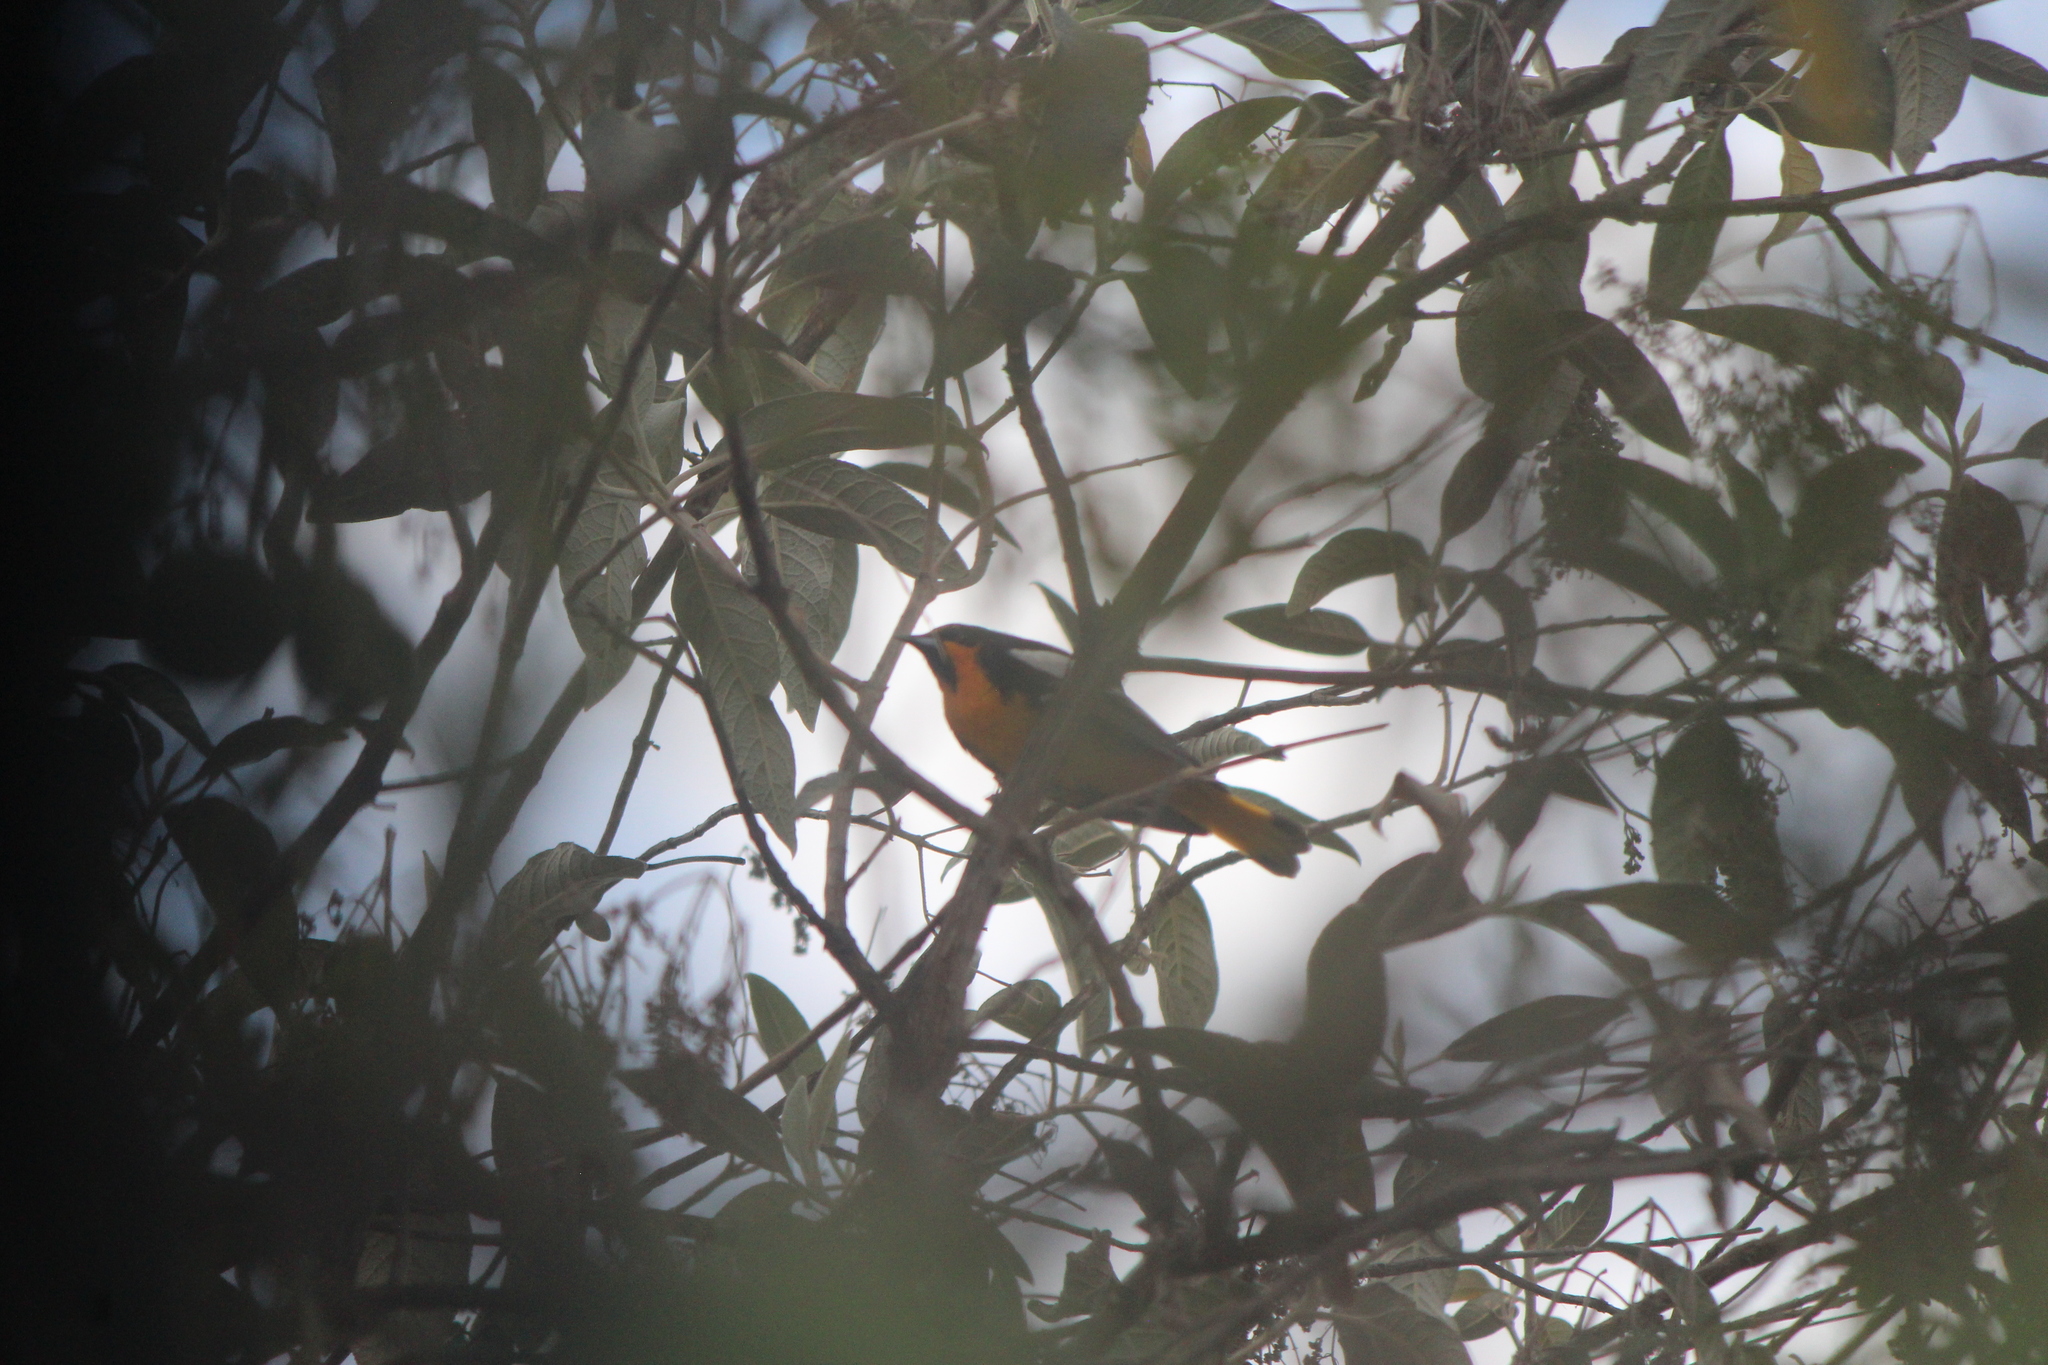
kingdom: Animalia
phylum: Chordata
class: Aves
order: Passeriformes
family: Icteridae
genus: Icterus
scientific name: Icterus abeillei
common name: Black-backed oriole
